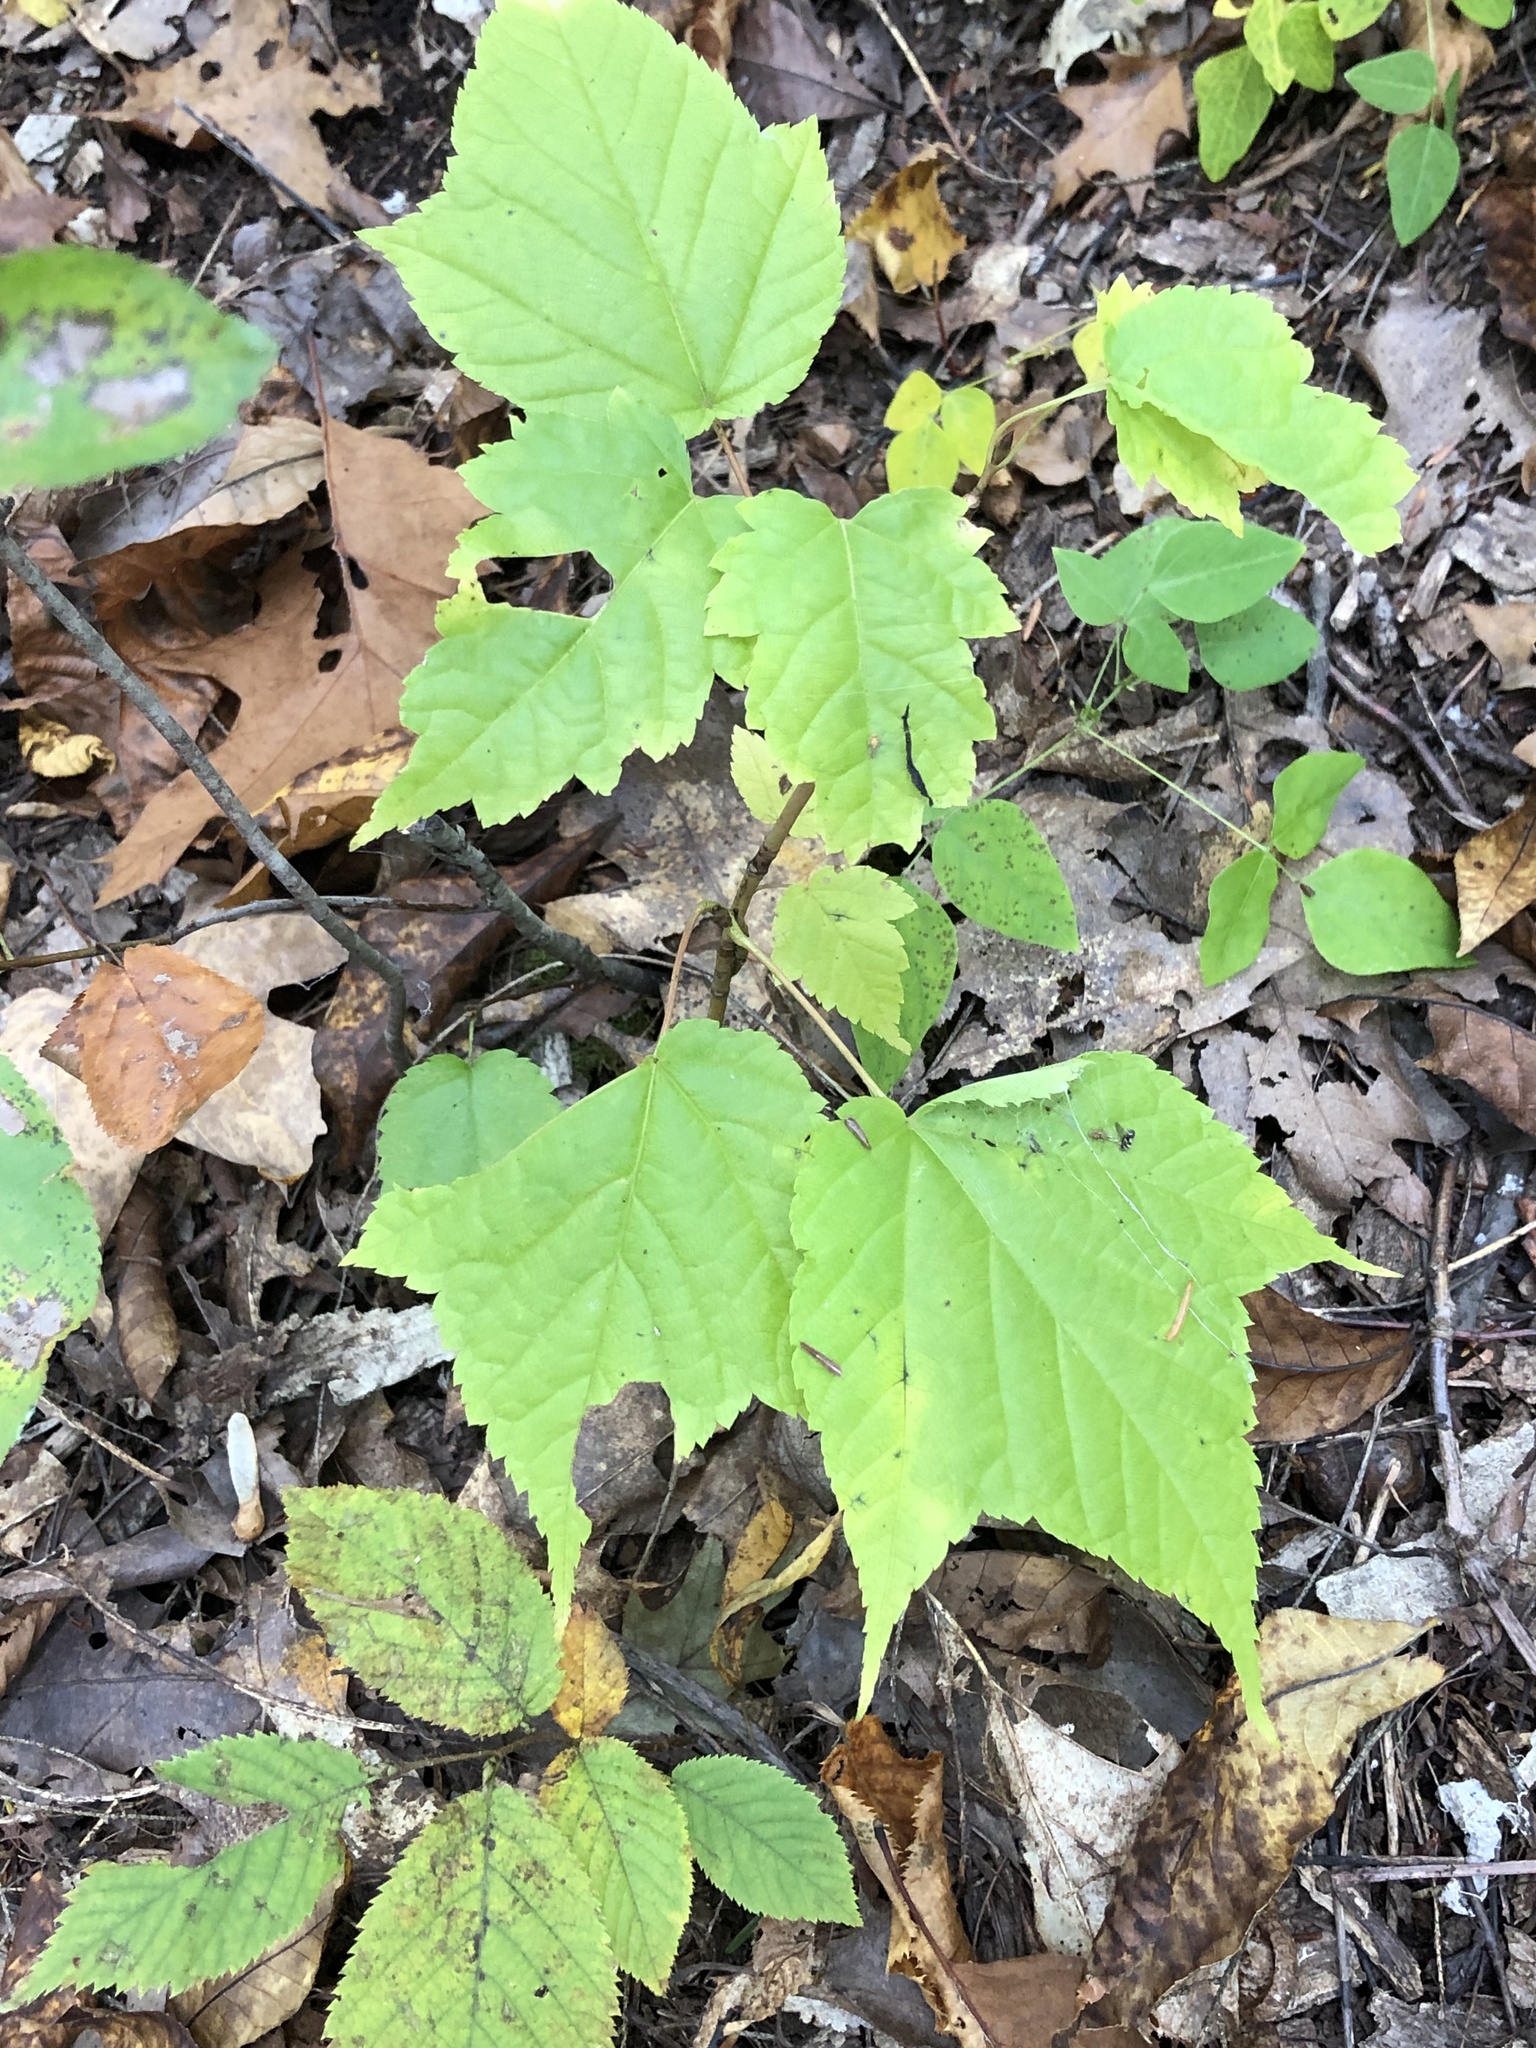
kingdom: Plantae
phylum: Tracheophyta
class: Magnoliopsida
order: Sapindales
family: Sapindaceae
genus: Acer
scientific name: Acer pensylvanicum
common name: Moosewood
